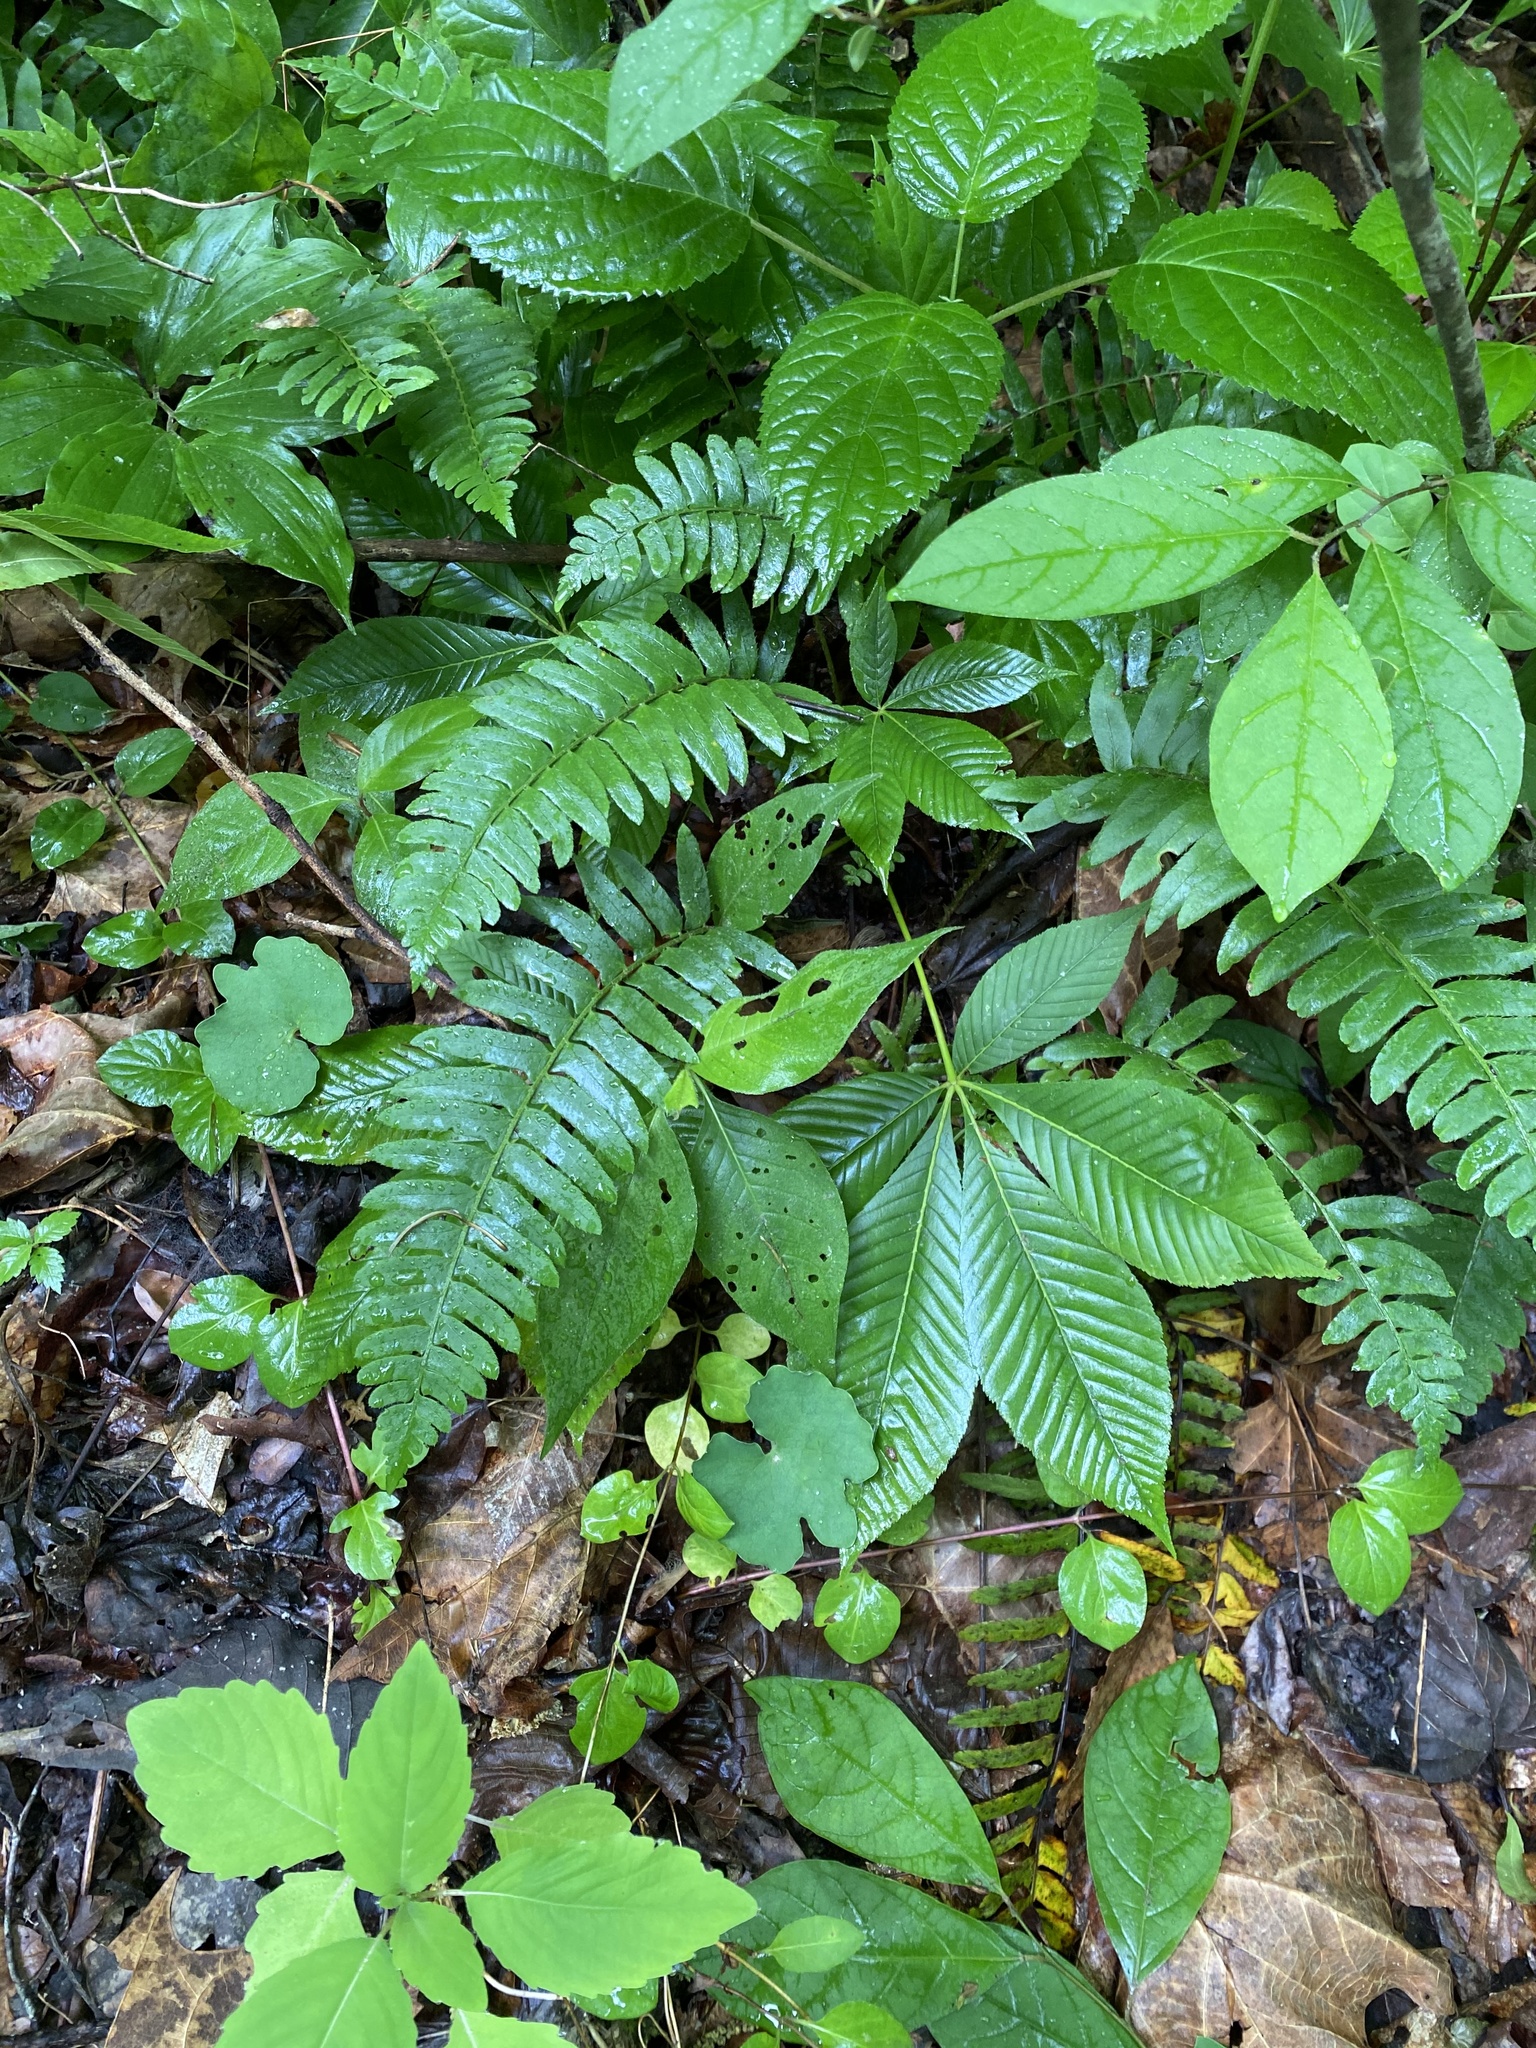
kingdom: Plantae
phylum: Tracheophyta
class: Polypodiopsida
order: Polypodiales
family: Dryopteridaceae
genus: Polystichum
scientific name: Polystichum acrostichoides
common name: Christmas fern
